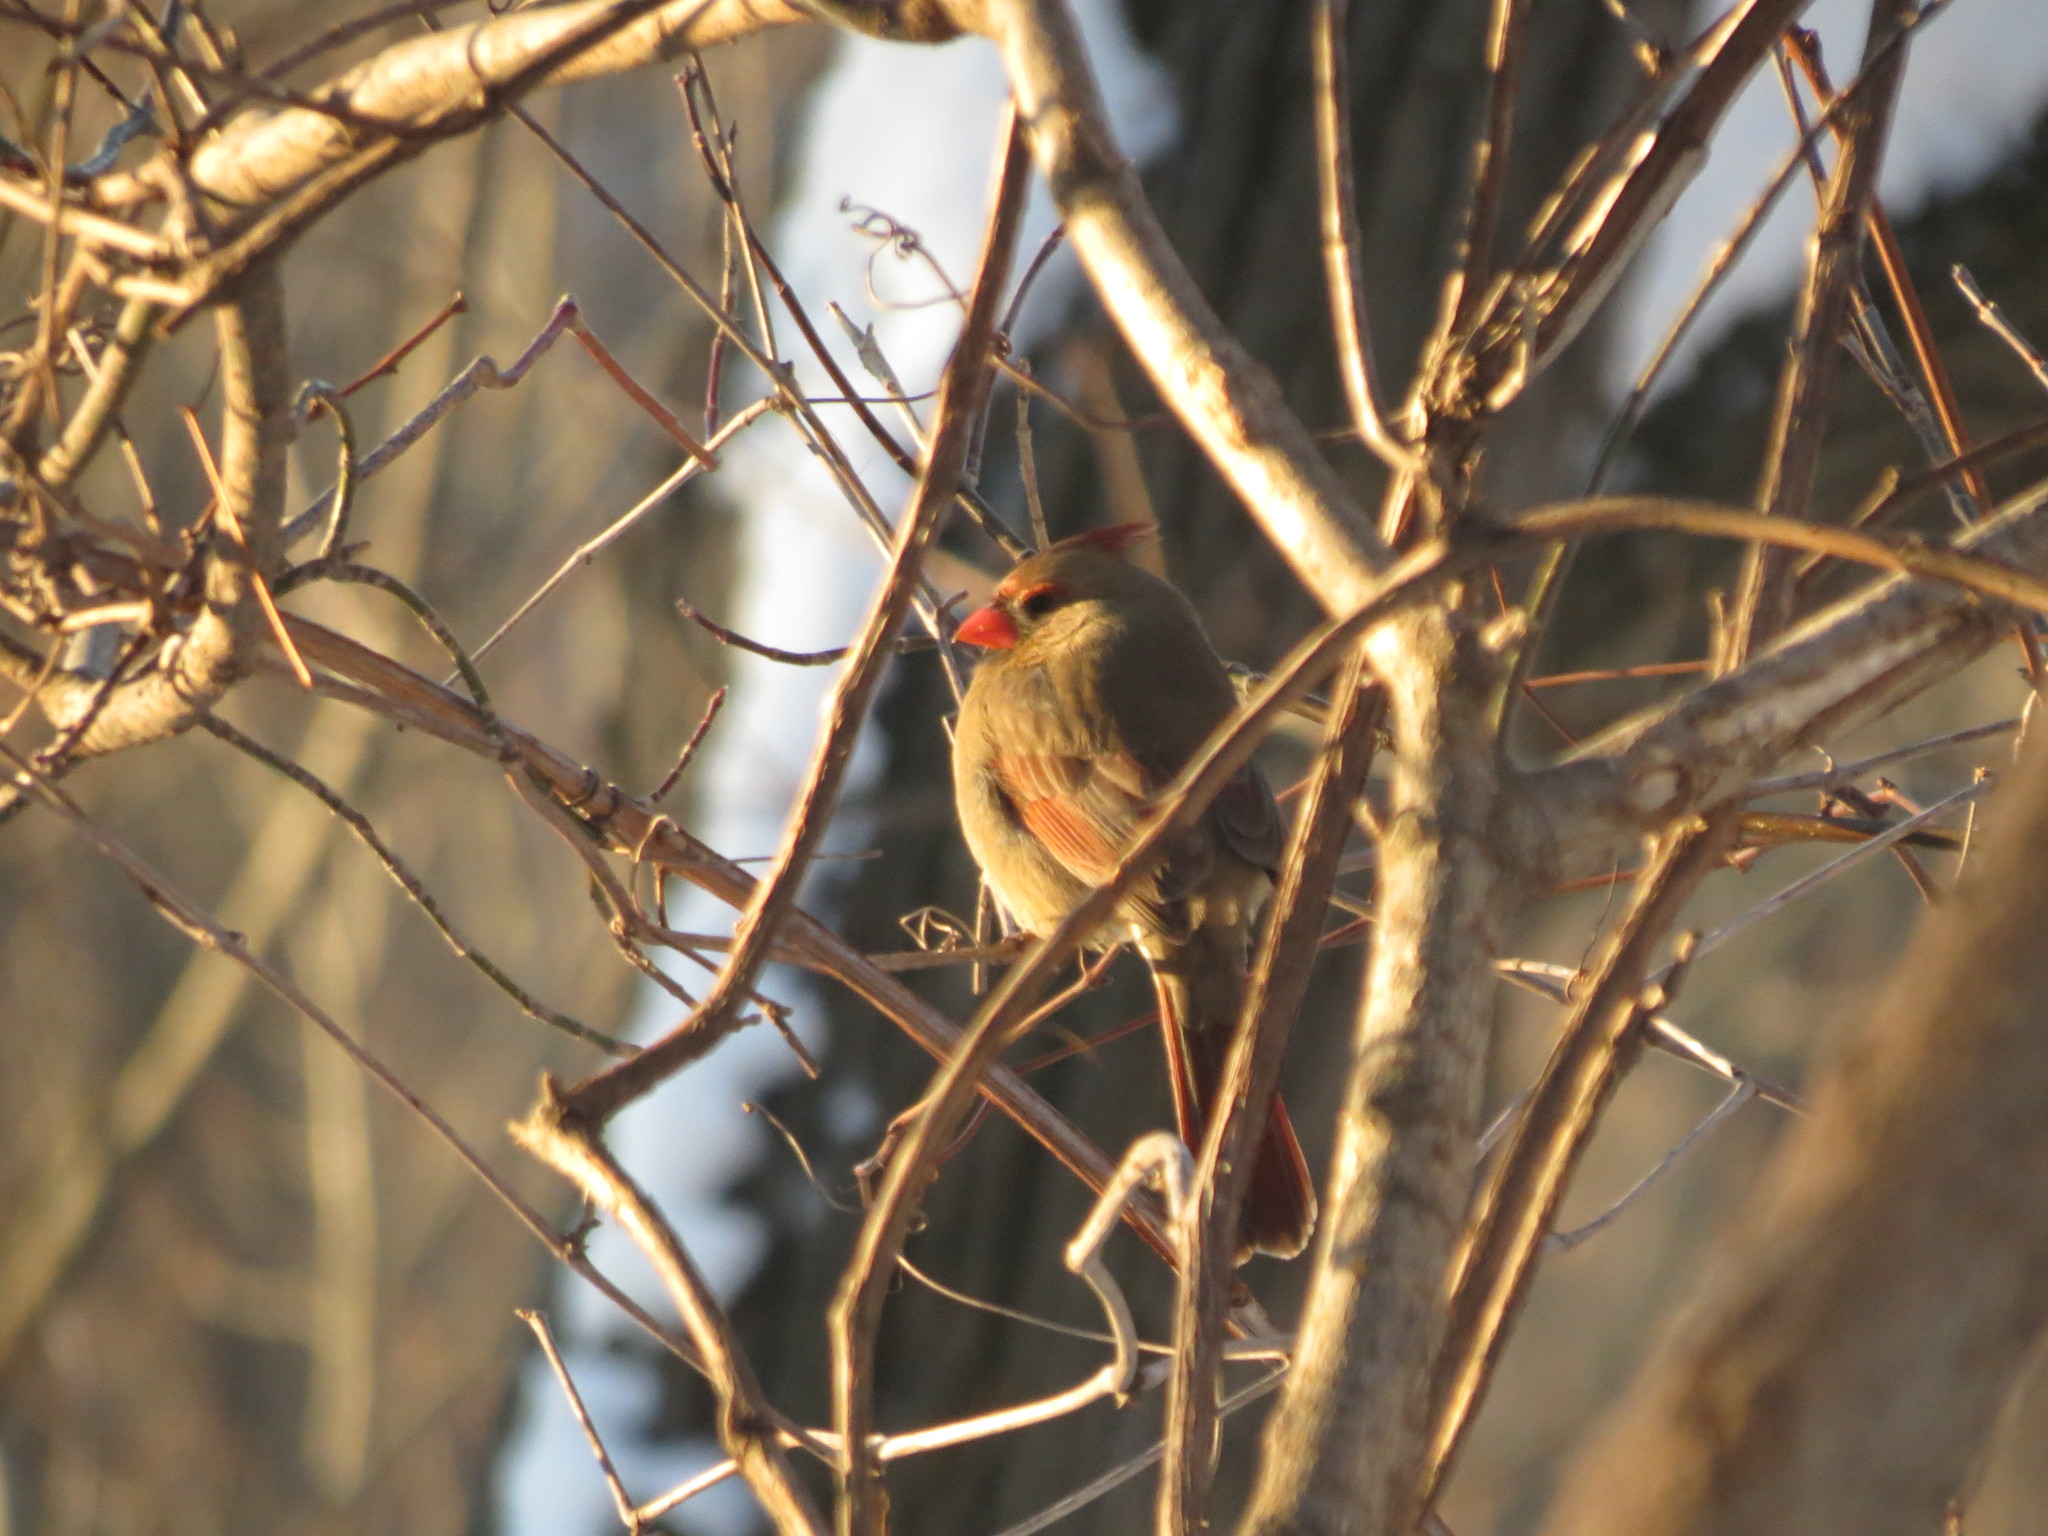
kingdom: Animalia
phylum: Chordata
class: Aves
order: Passeriformes
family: Cardinalidae
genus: Cardinalis
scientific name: Cardinalis cardinalis
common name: Northern cardinal
